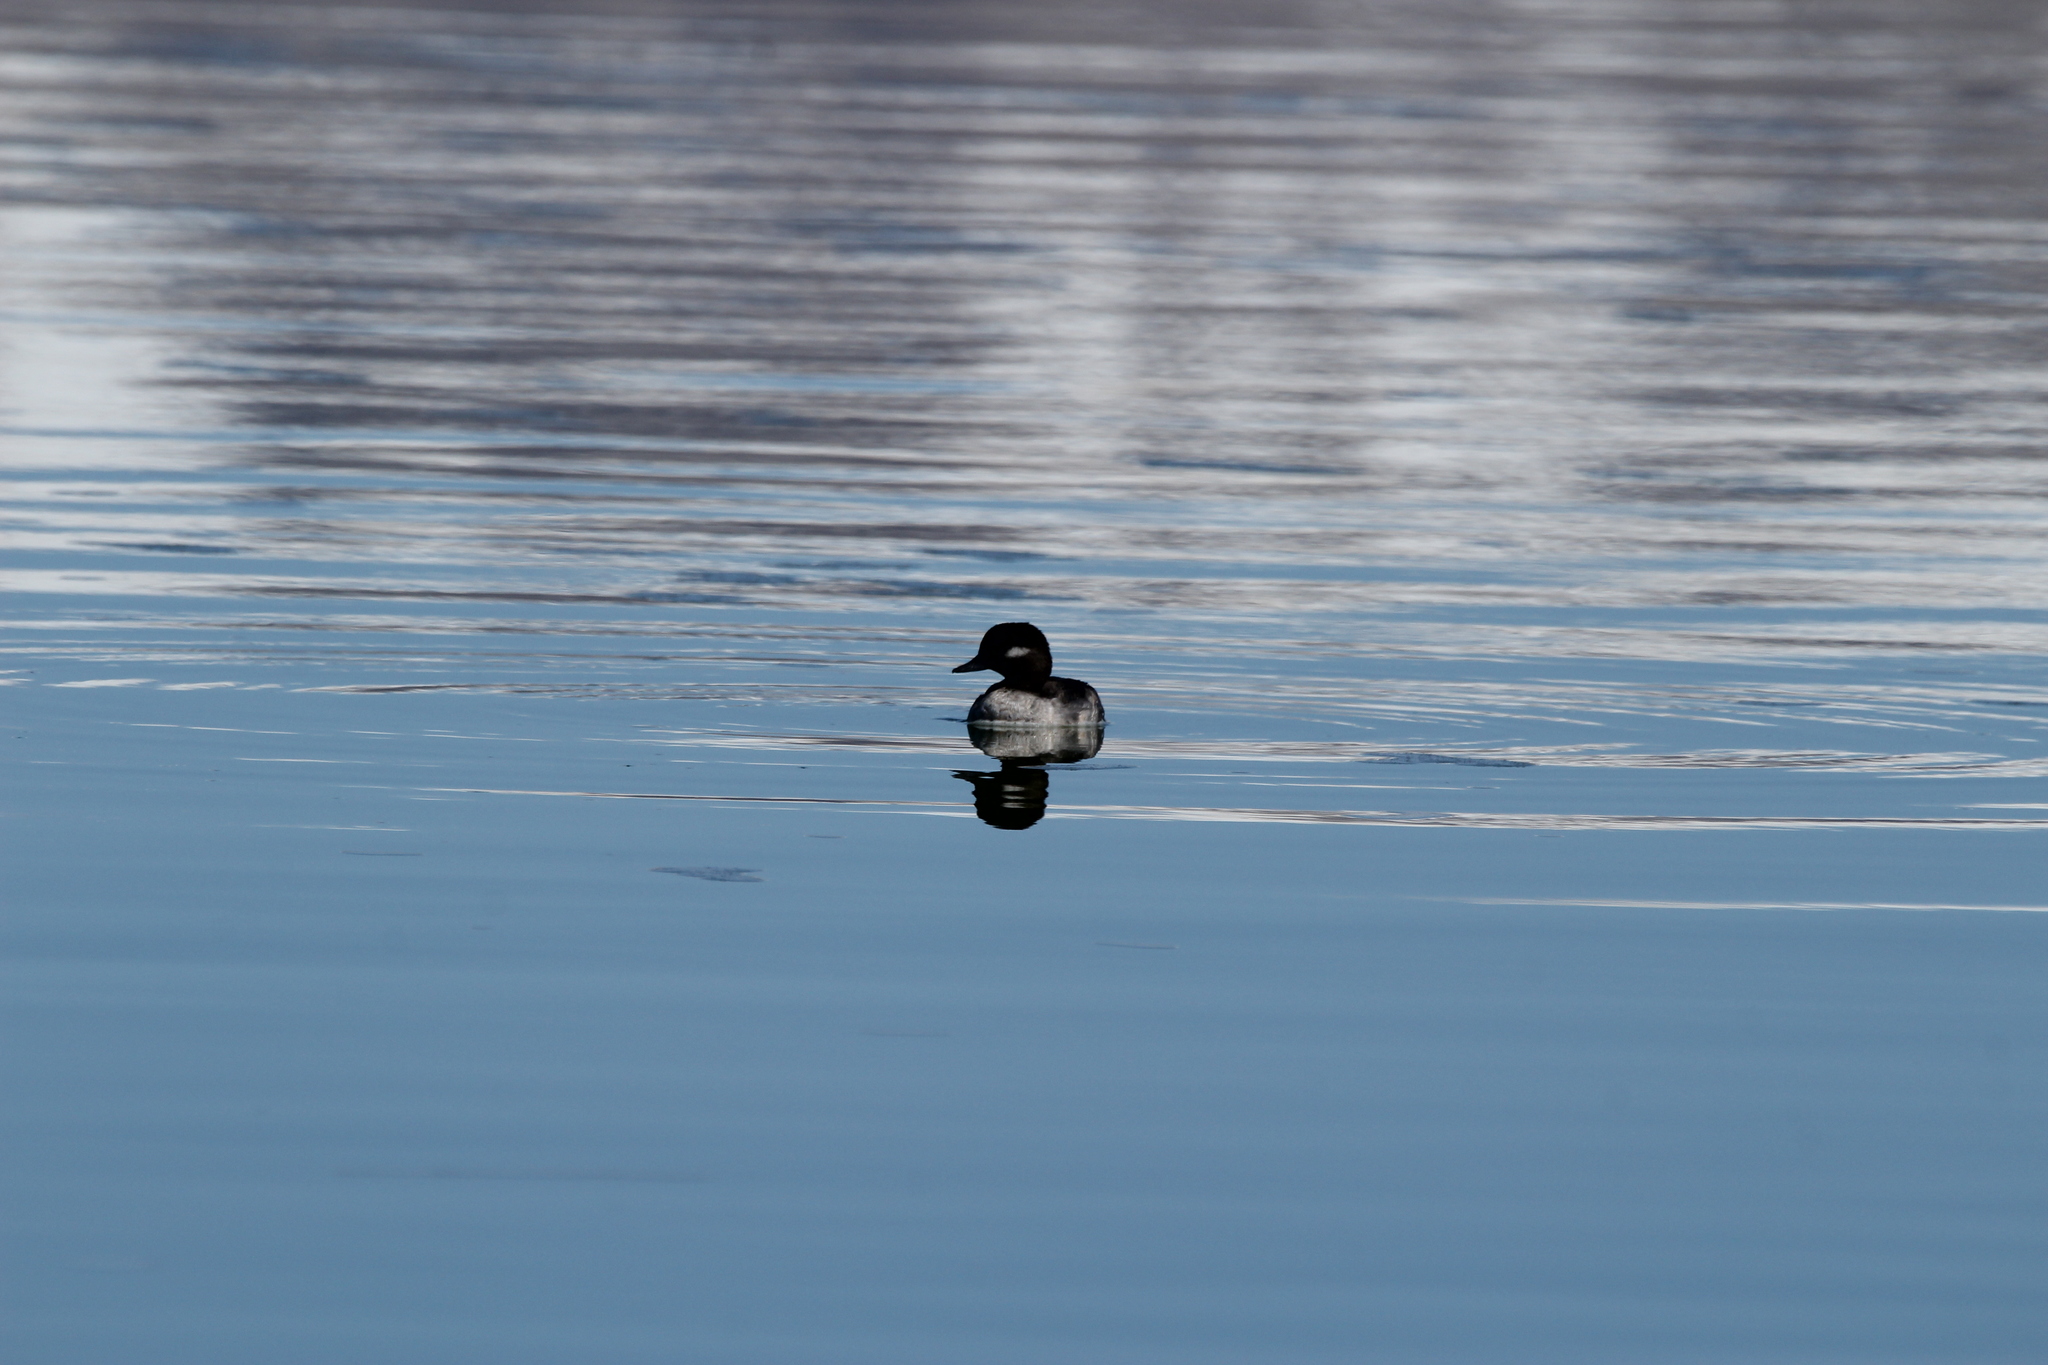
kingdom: Animalia
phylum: Chordata
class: Aves
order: Anseriformes
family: Anatidae
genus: Bucephala
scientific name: Bucephala albeola
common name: Bufflehead
